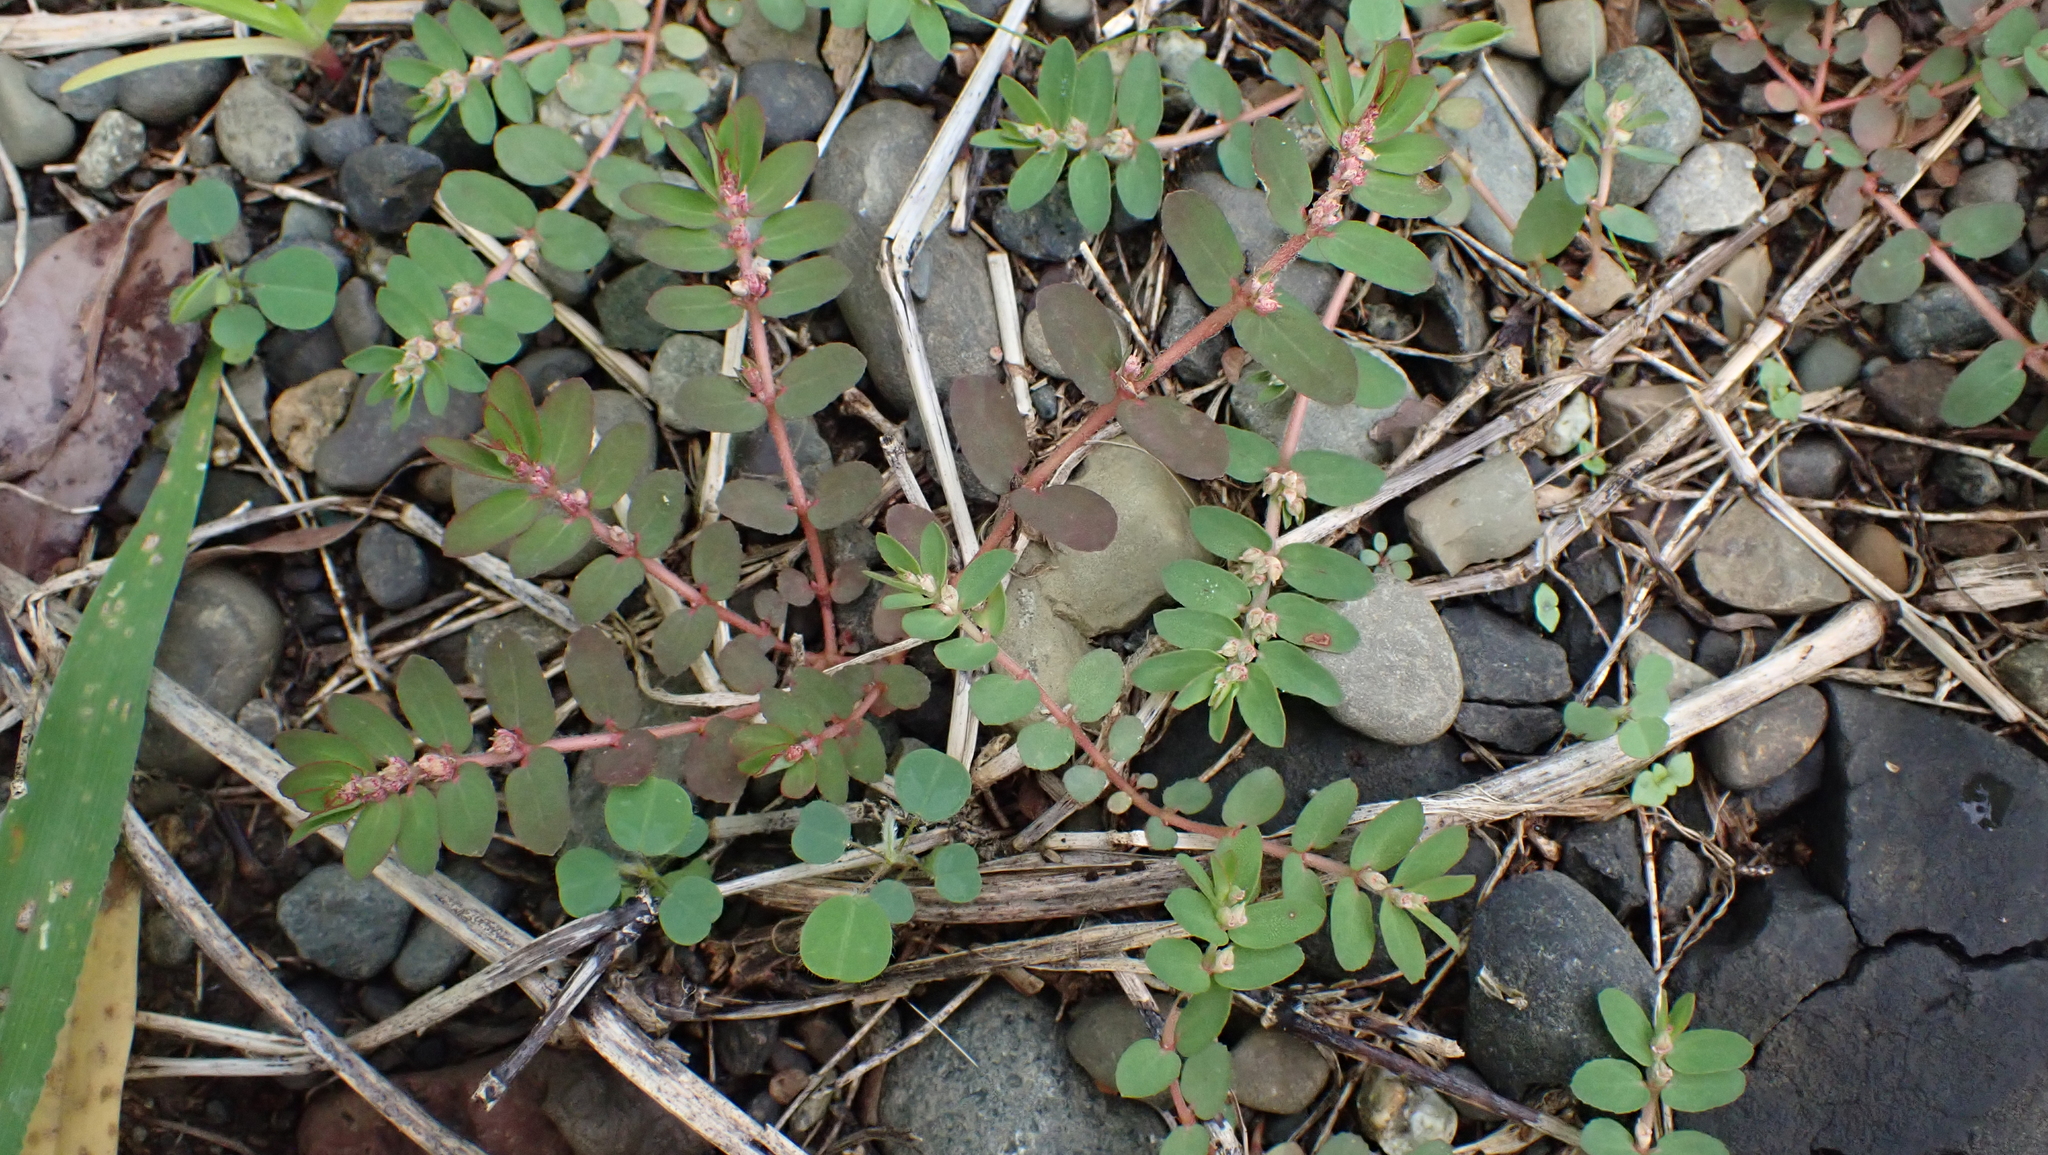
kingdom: Plantae
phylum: Tracheophyta
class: Magnoliopsida
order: Malpighiales
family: Euphorbiaceae
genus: Euphorbia
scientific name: Euphorbia thymifolia
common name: Gulf sandmat
